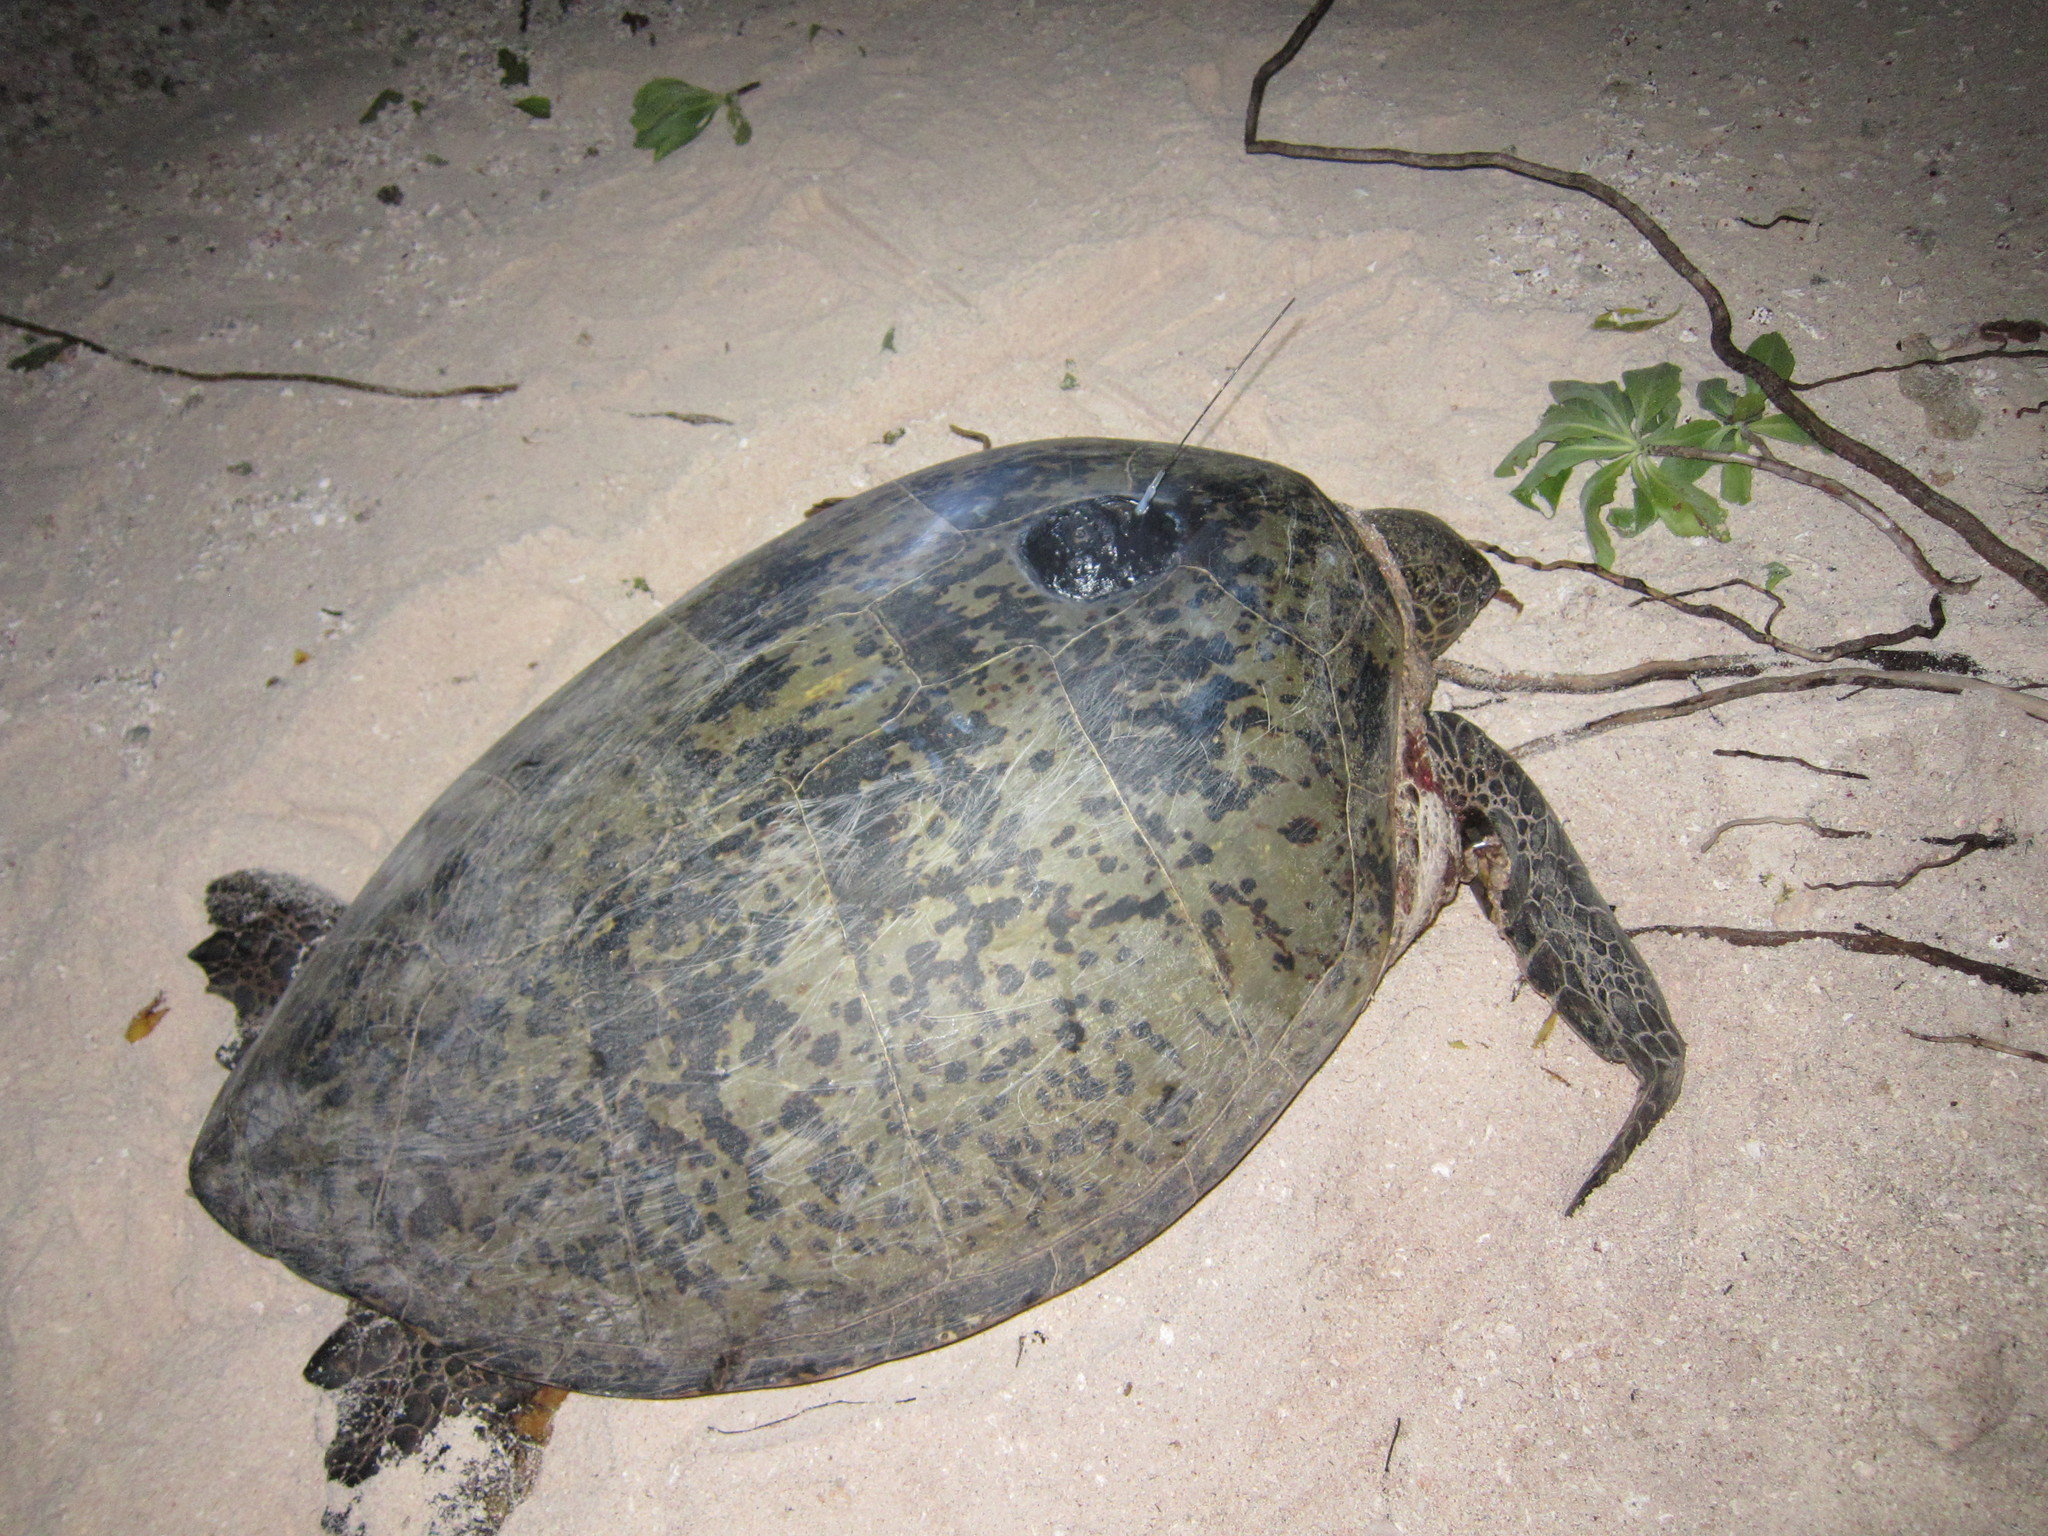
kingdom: Animalia
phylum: Chordata
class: Testudines
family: Cheloniidae
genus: Chelonia
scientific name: Chelonia mydas
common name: Green turtle
